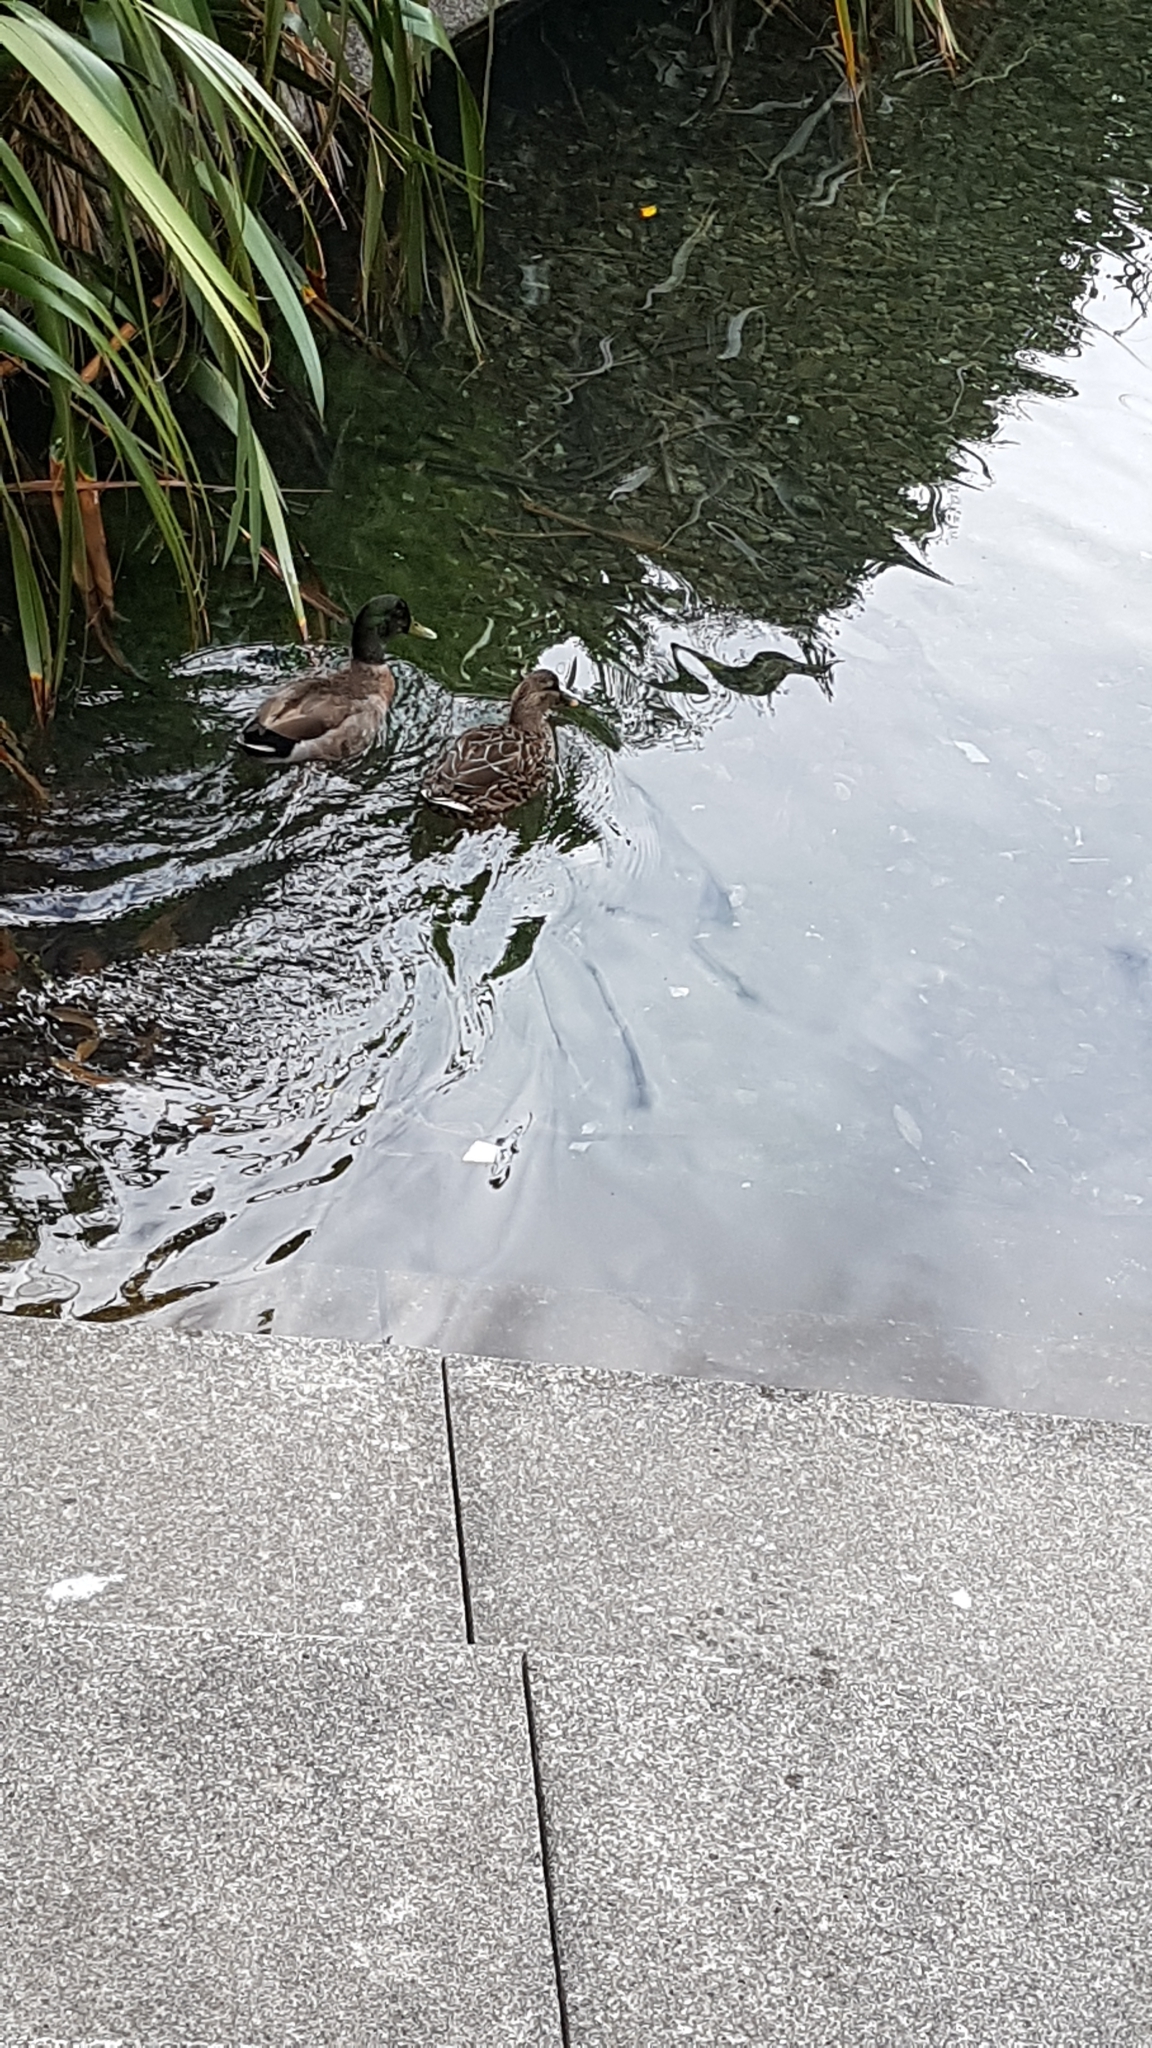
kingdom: Animalia
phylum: Chordata
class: Aves
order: Anseriformes
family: Anatidae
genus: Anas
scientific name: Anas platyrhynchos
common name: Mallard
